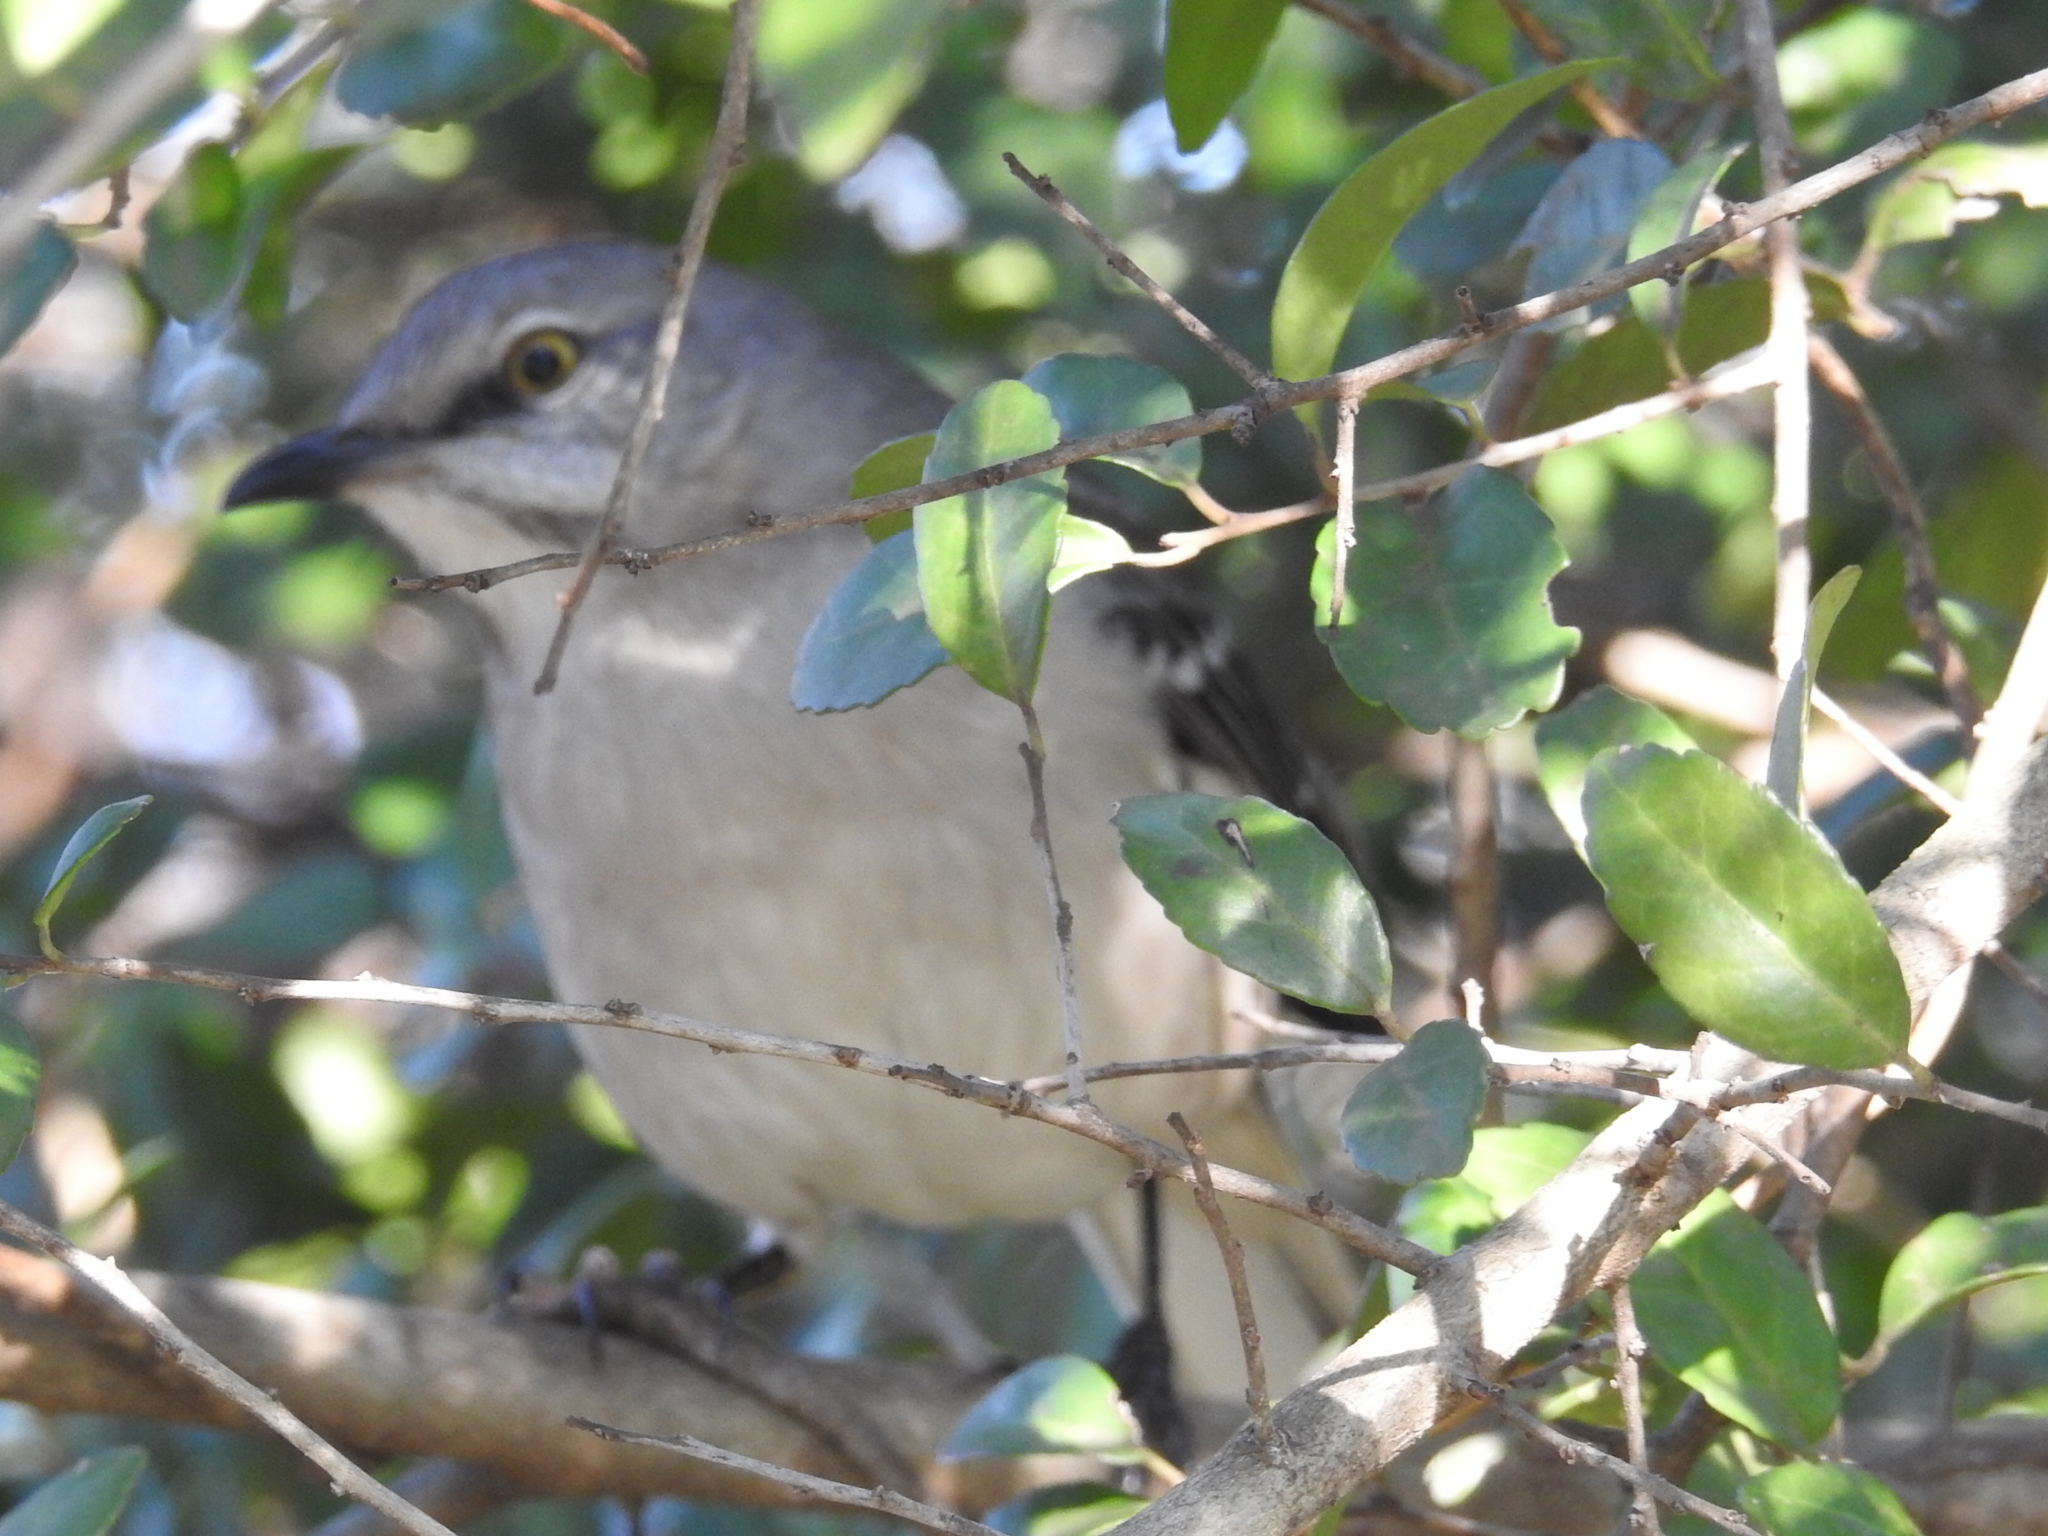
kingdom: Animalia
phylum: Chordata
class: Aves
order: Passeriformes
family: Mimidae
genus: Mimus
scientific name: Mimus polyglottos
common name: Northern mockingbird
